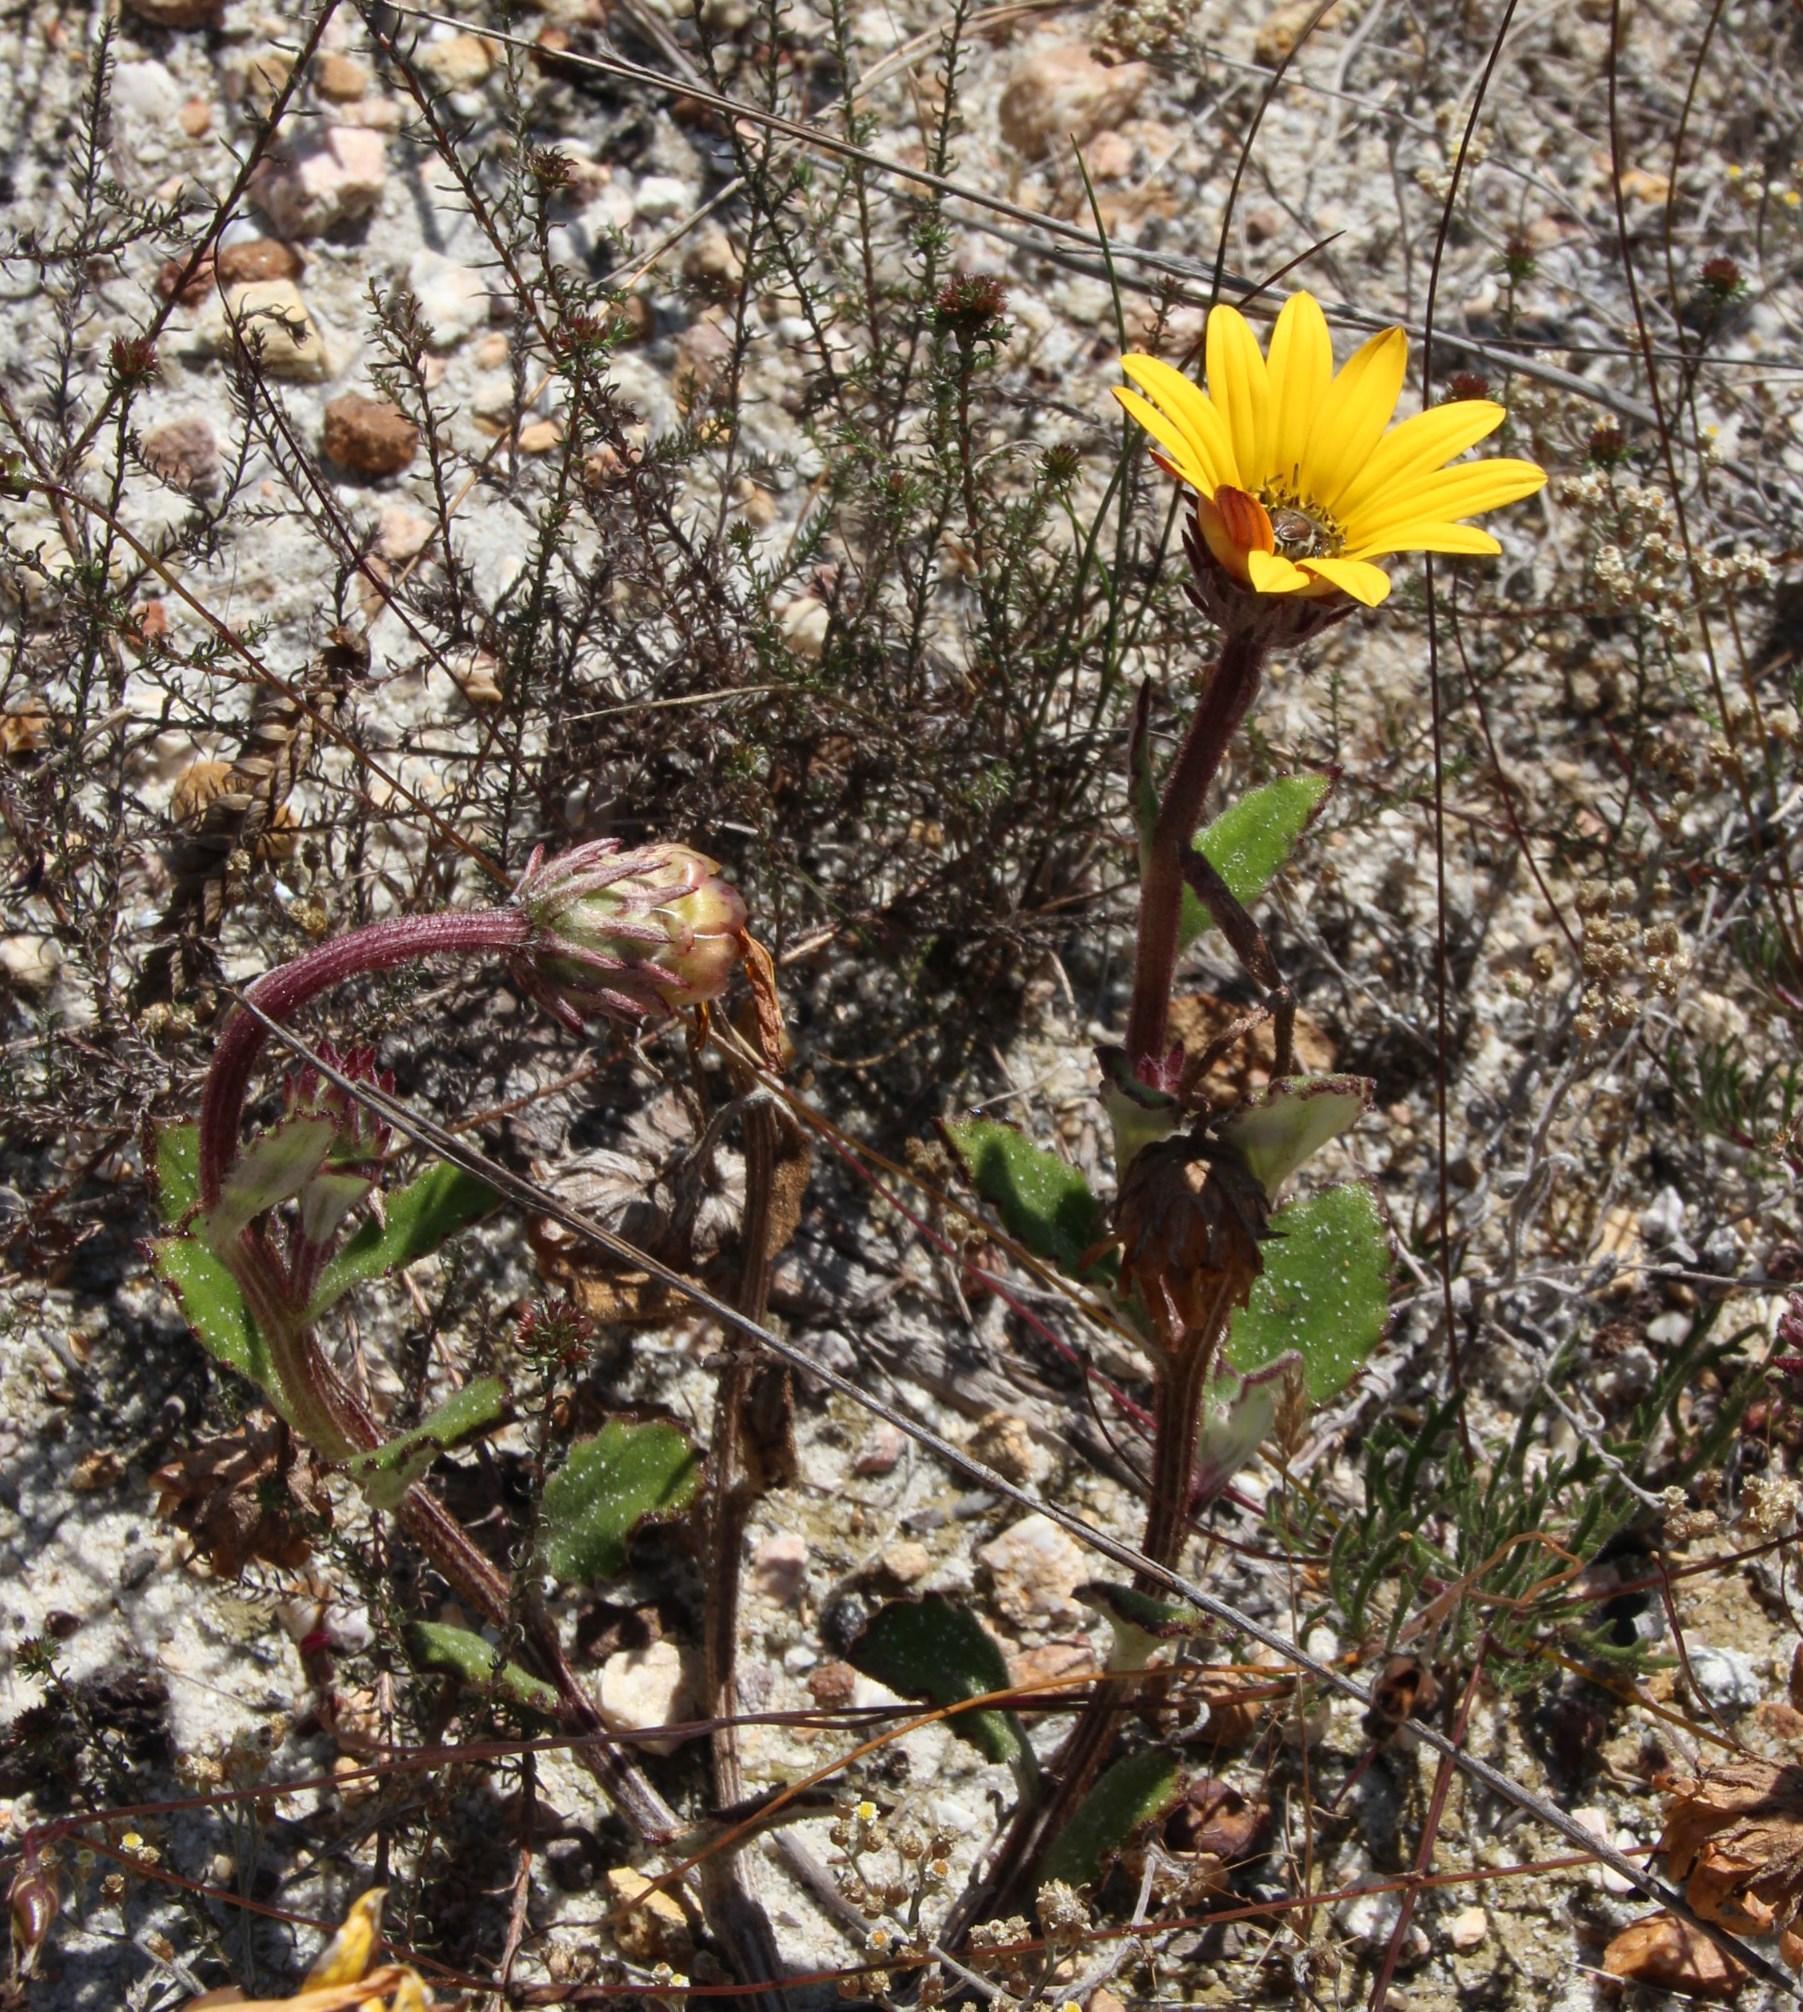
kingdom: Plantae
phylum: Tracheophyta
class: Magnoliopsida
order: Asterales
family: Asteraceae
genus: Arctotis
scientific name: Arctotis angustifolia
